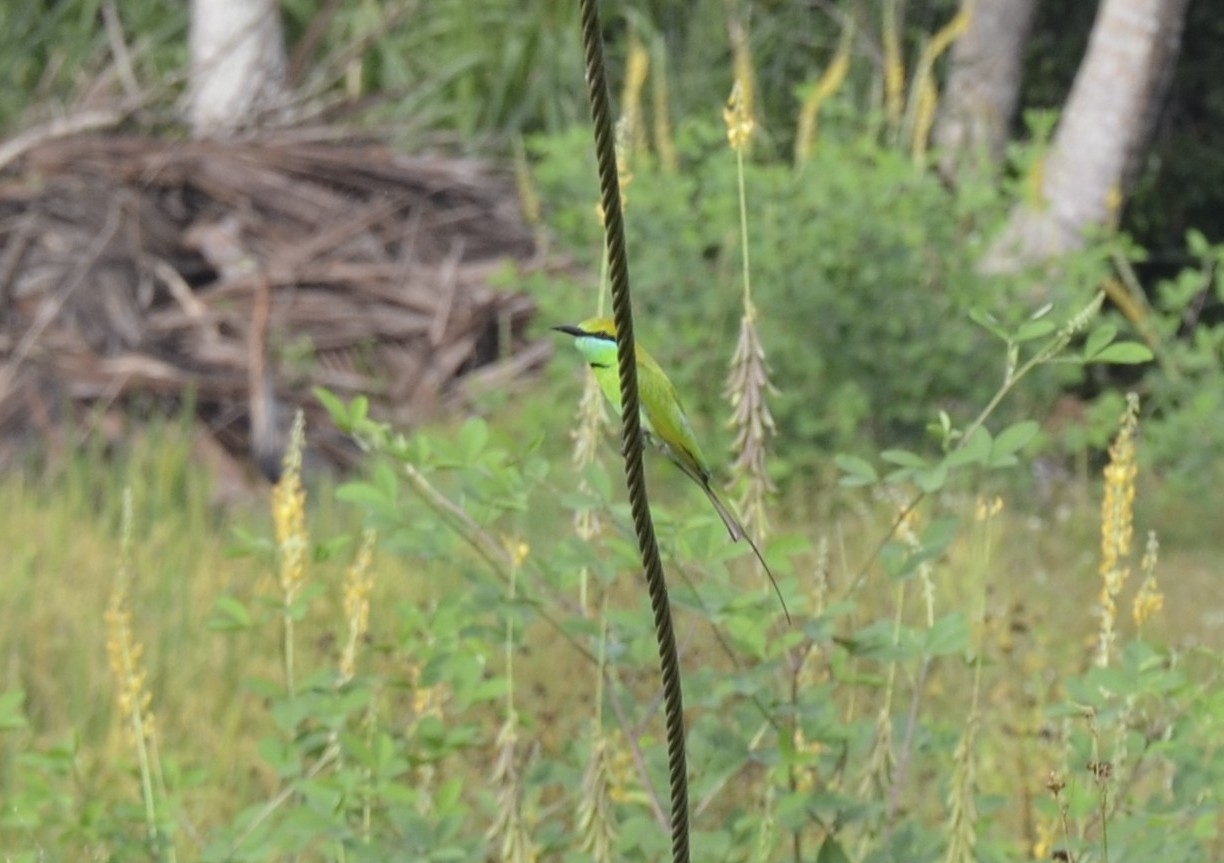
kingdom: Animalia
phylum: Chordata
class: Aves
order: Coraciiformes
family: Meropidae
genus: Merops
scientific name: Merops orientalis
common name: Green bee-eater
